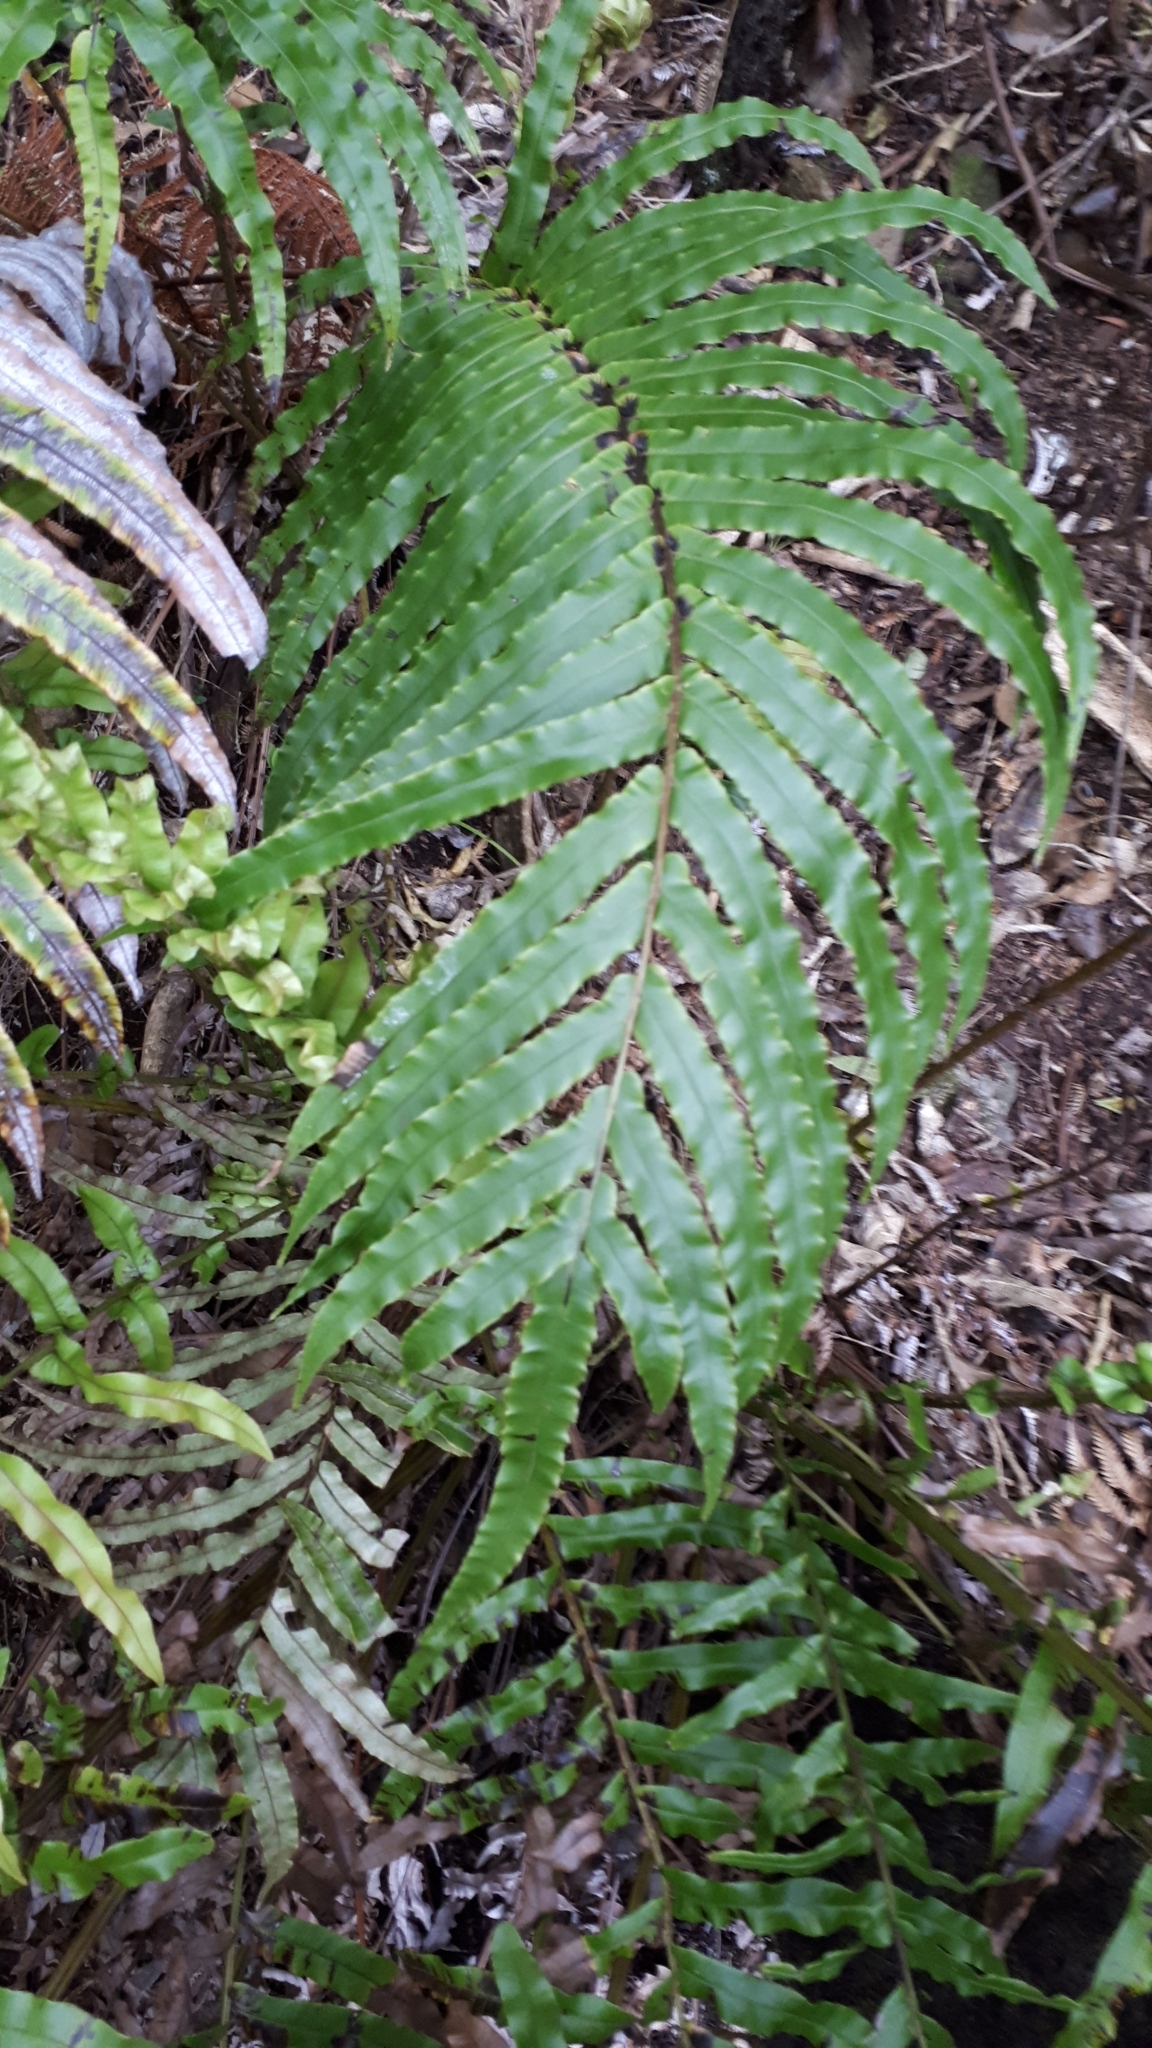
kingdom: Plantae
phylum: Tracheophyta
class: Polypodiopsida
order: Polypodiales
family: Blechnaceae
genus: Parablechnum
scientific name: Parablechnum minus
